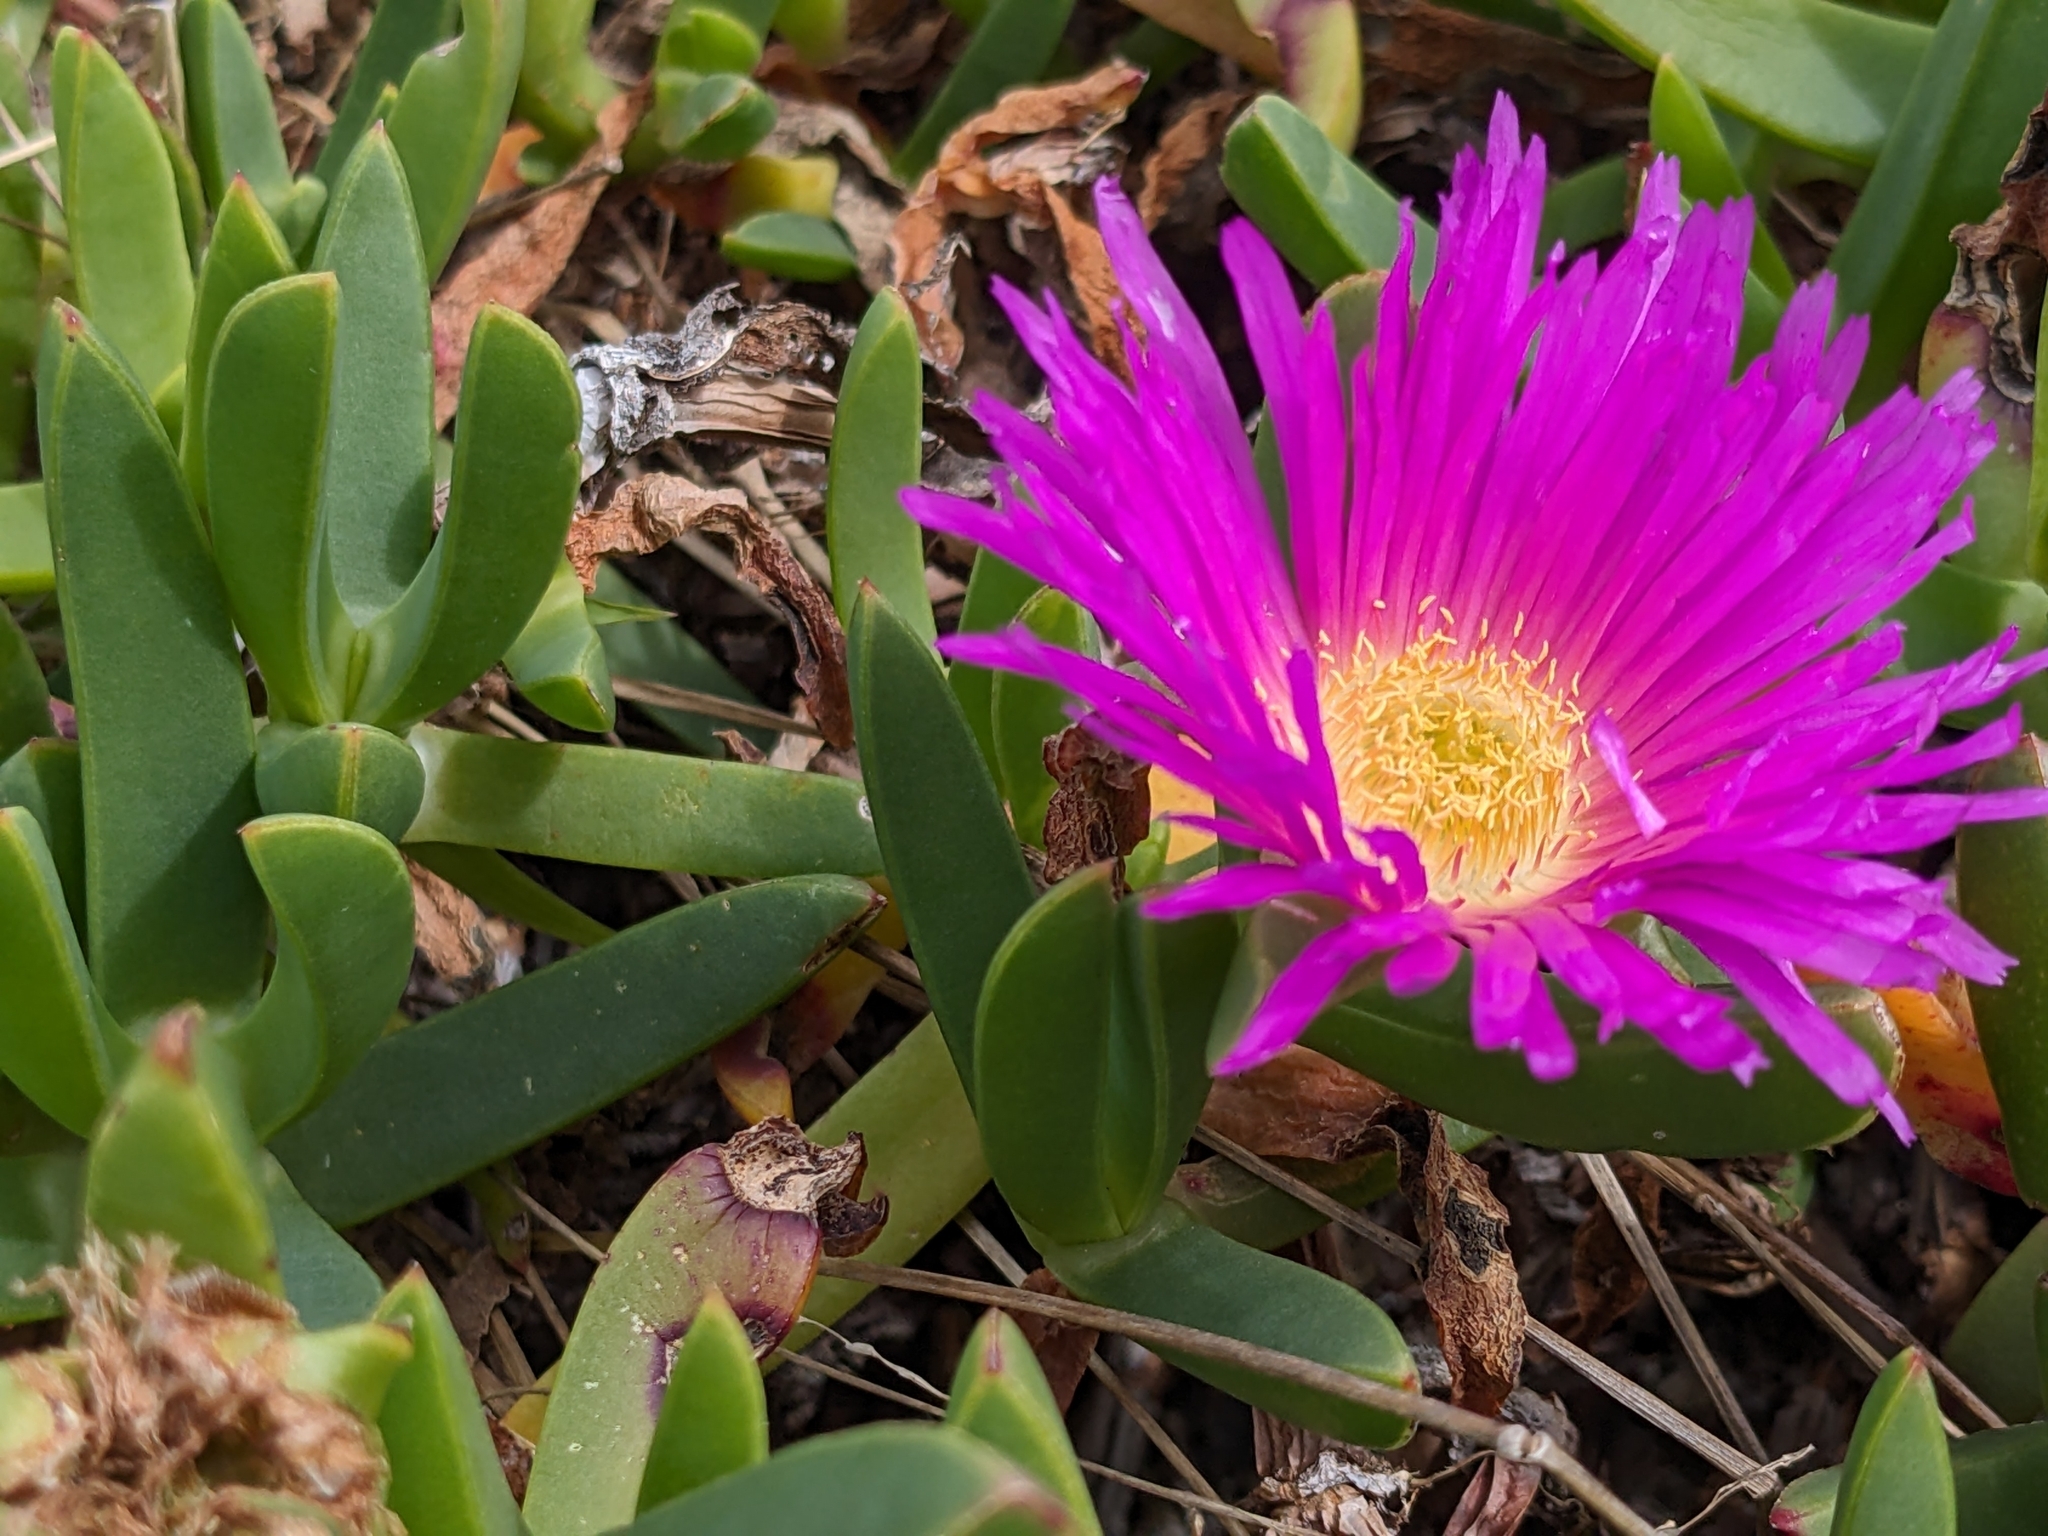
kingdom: Plantae
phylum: Tracheophyta
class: Magnoliopsida
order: Caryophyllales
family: Aizoaceae
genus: Carpobrotus
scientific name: Carpobrotus rossii
